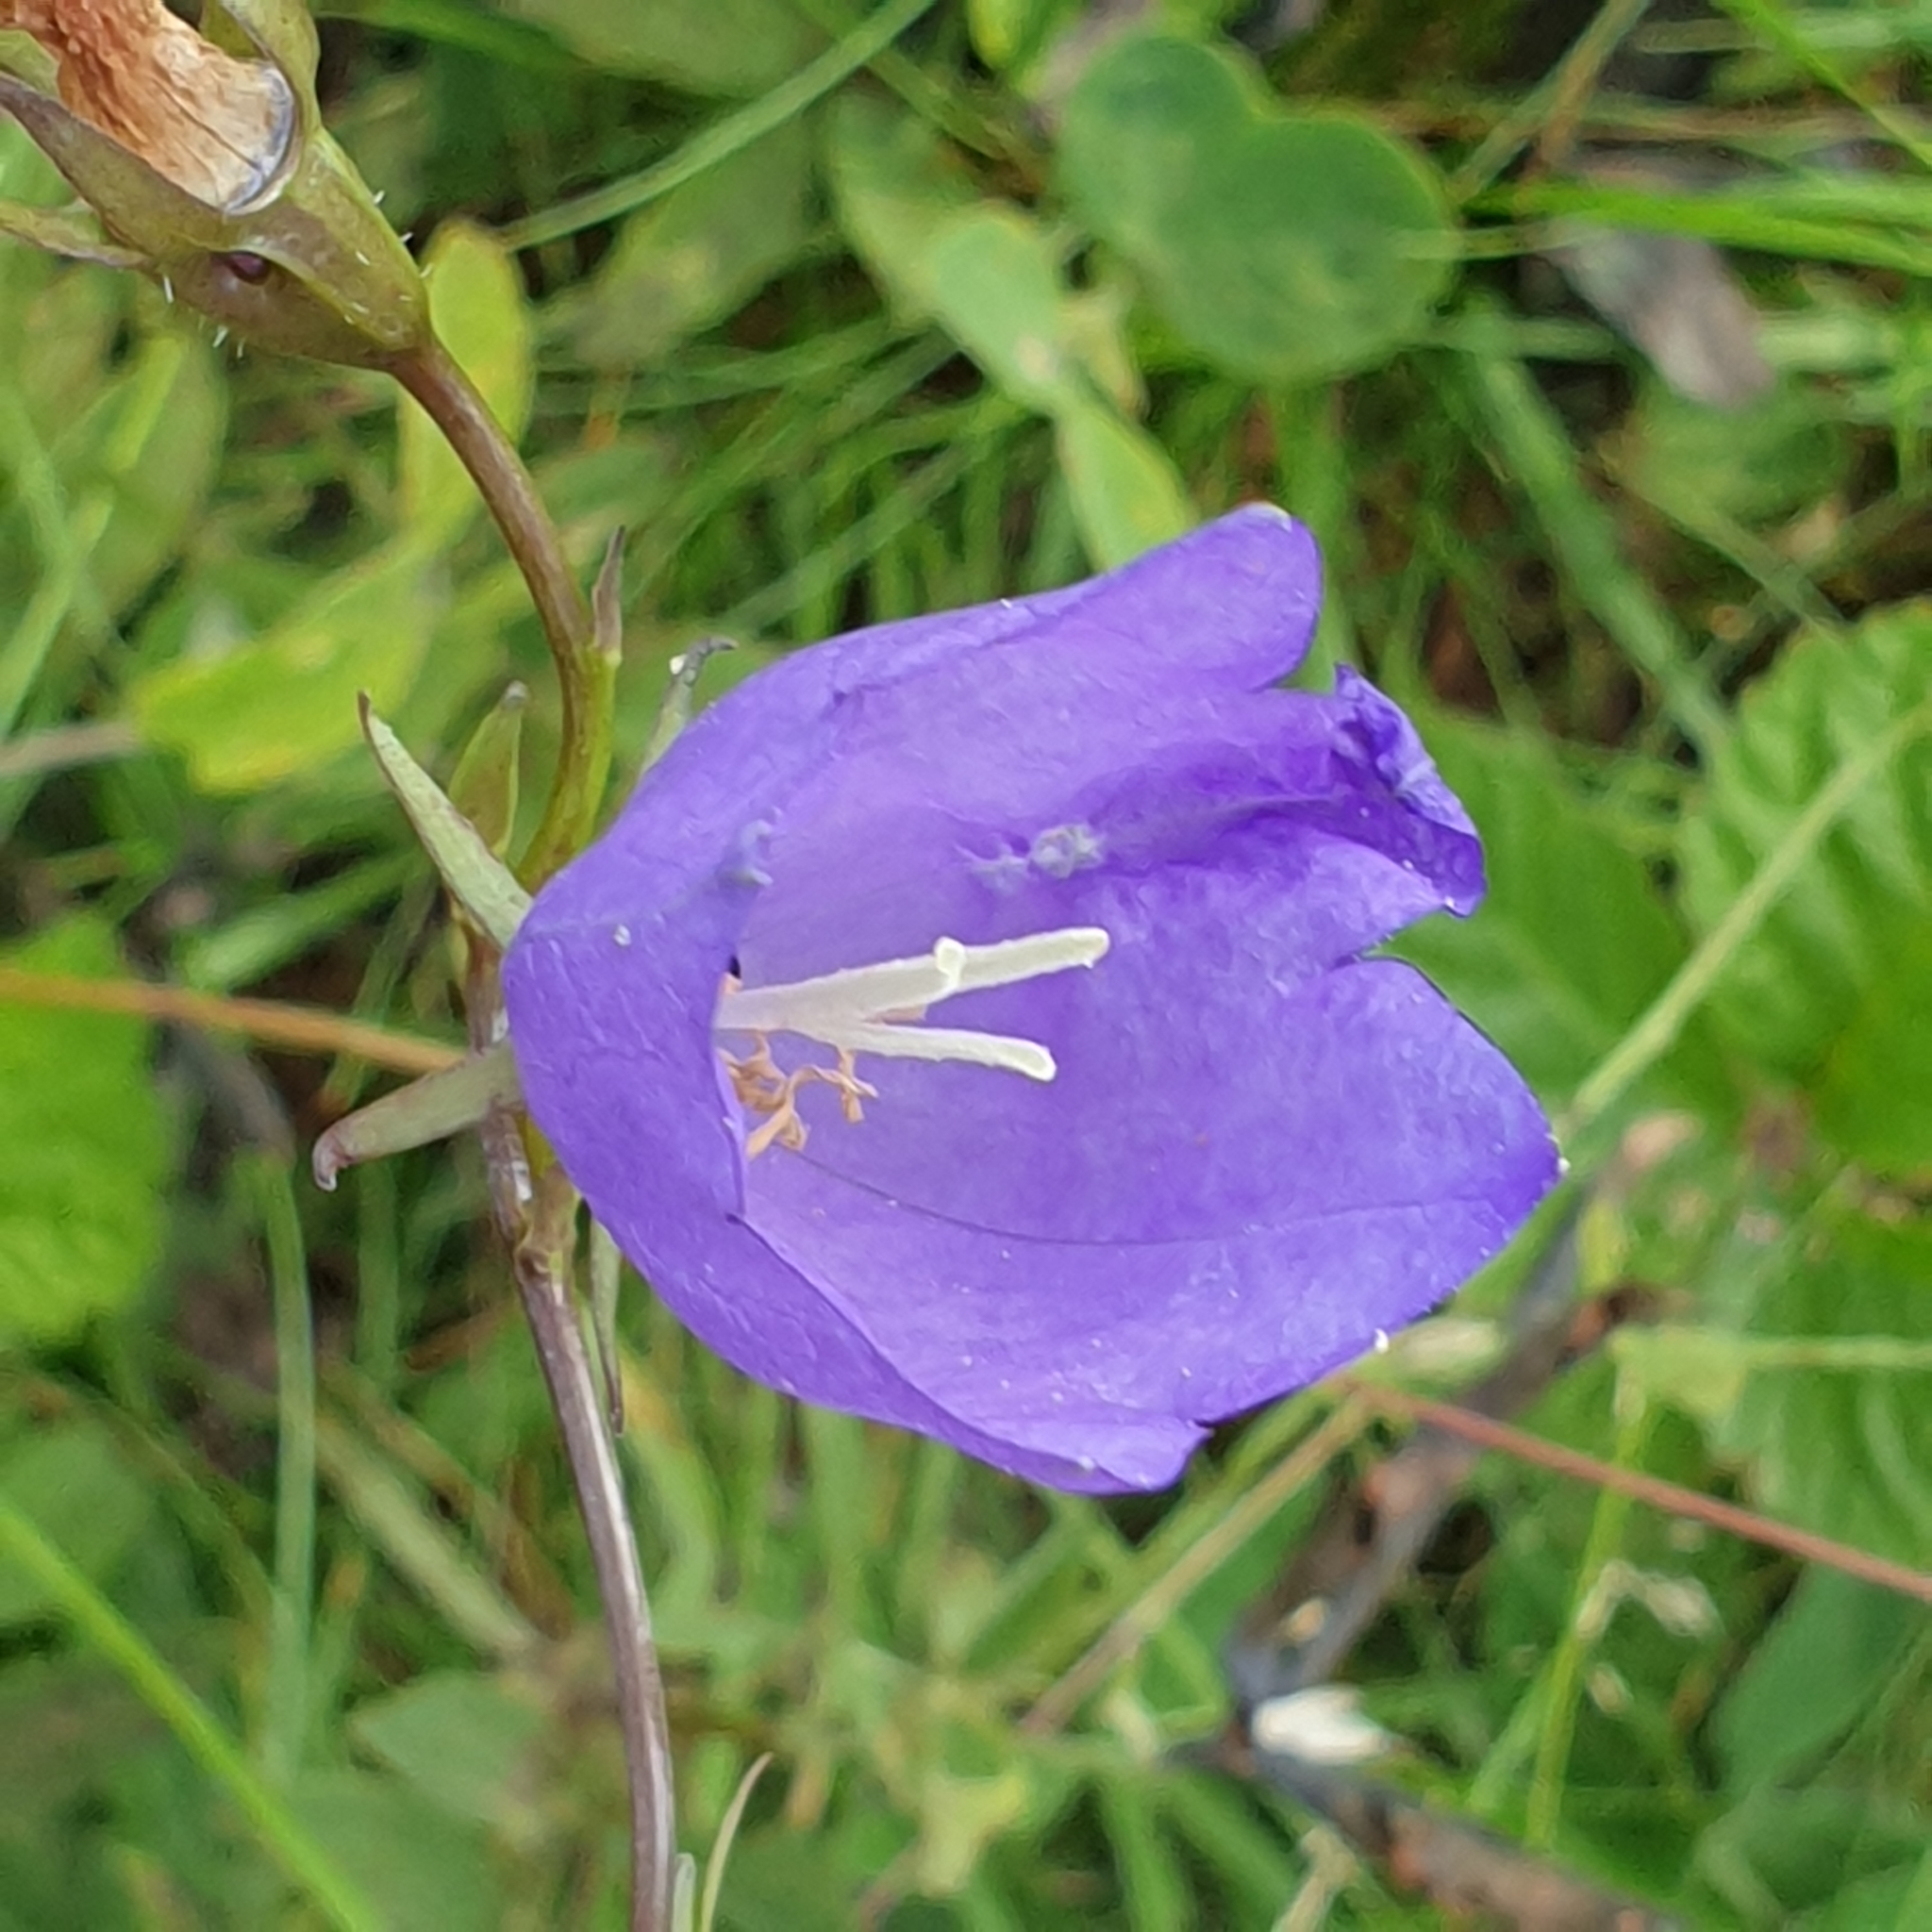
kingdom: Plantae
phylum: Tracheophyta
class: Magnoliopsida
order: Asterales
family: Campanulaceae
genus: Campanula
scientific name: Campanula persicifolia
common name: Peach-leaved bellflower
